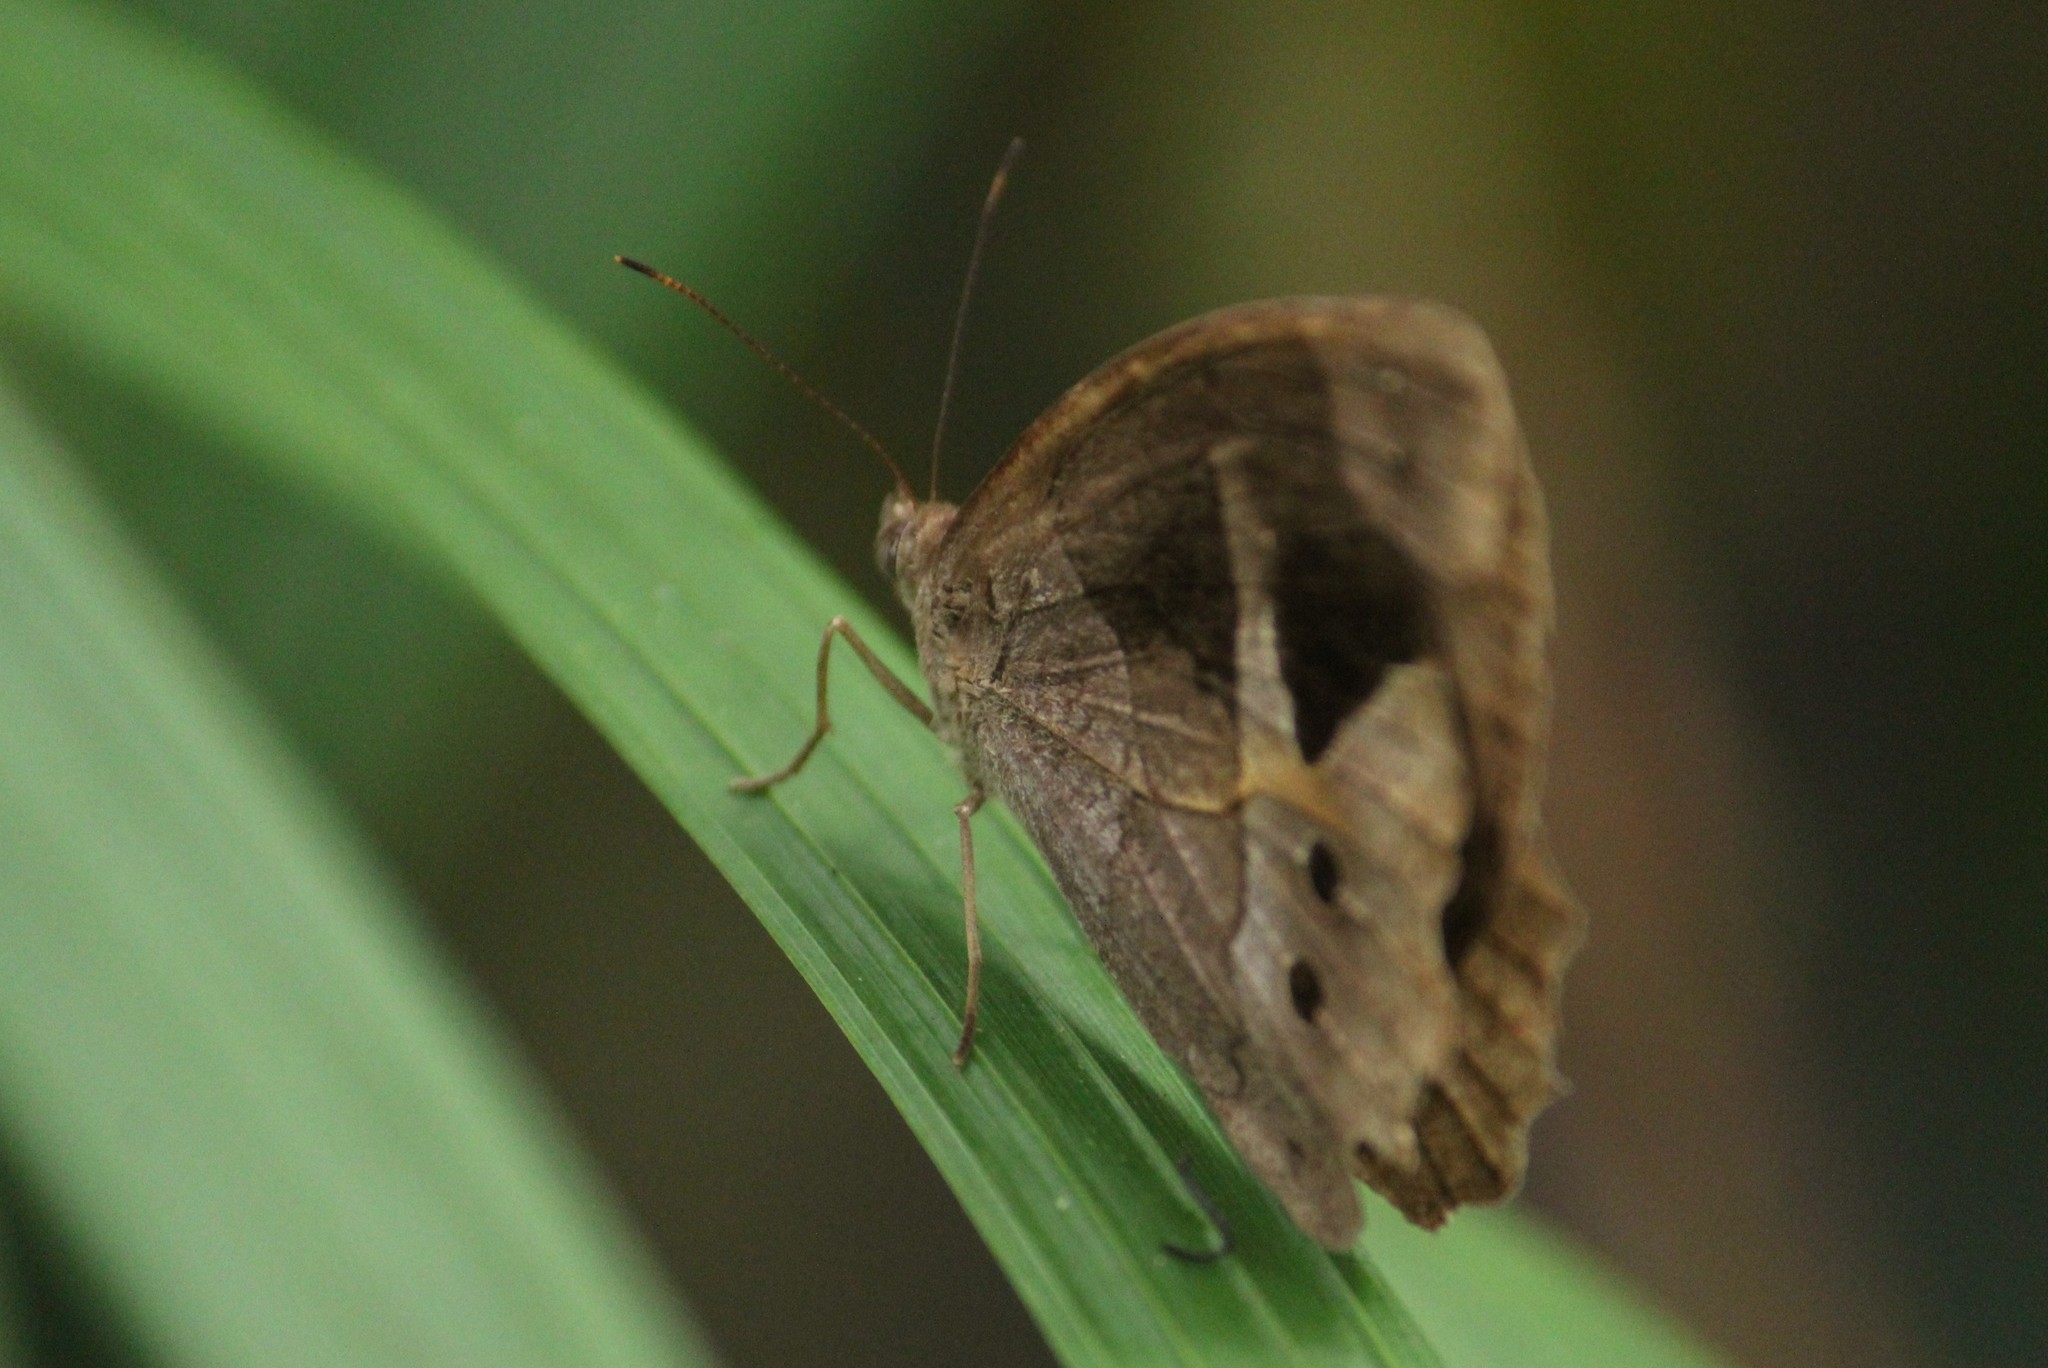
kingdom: Animalia
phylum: Arthropoda
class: Insecta
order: Lepidoptera
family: Nymphalidae
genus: Posttaygetis
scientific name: Posttaygetis penelea
